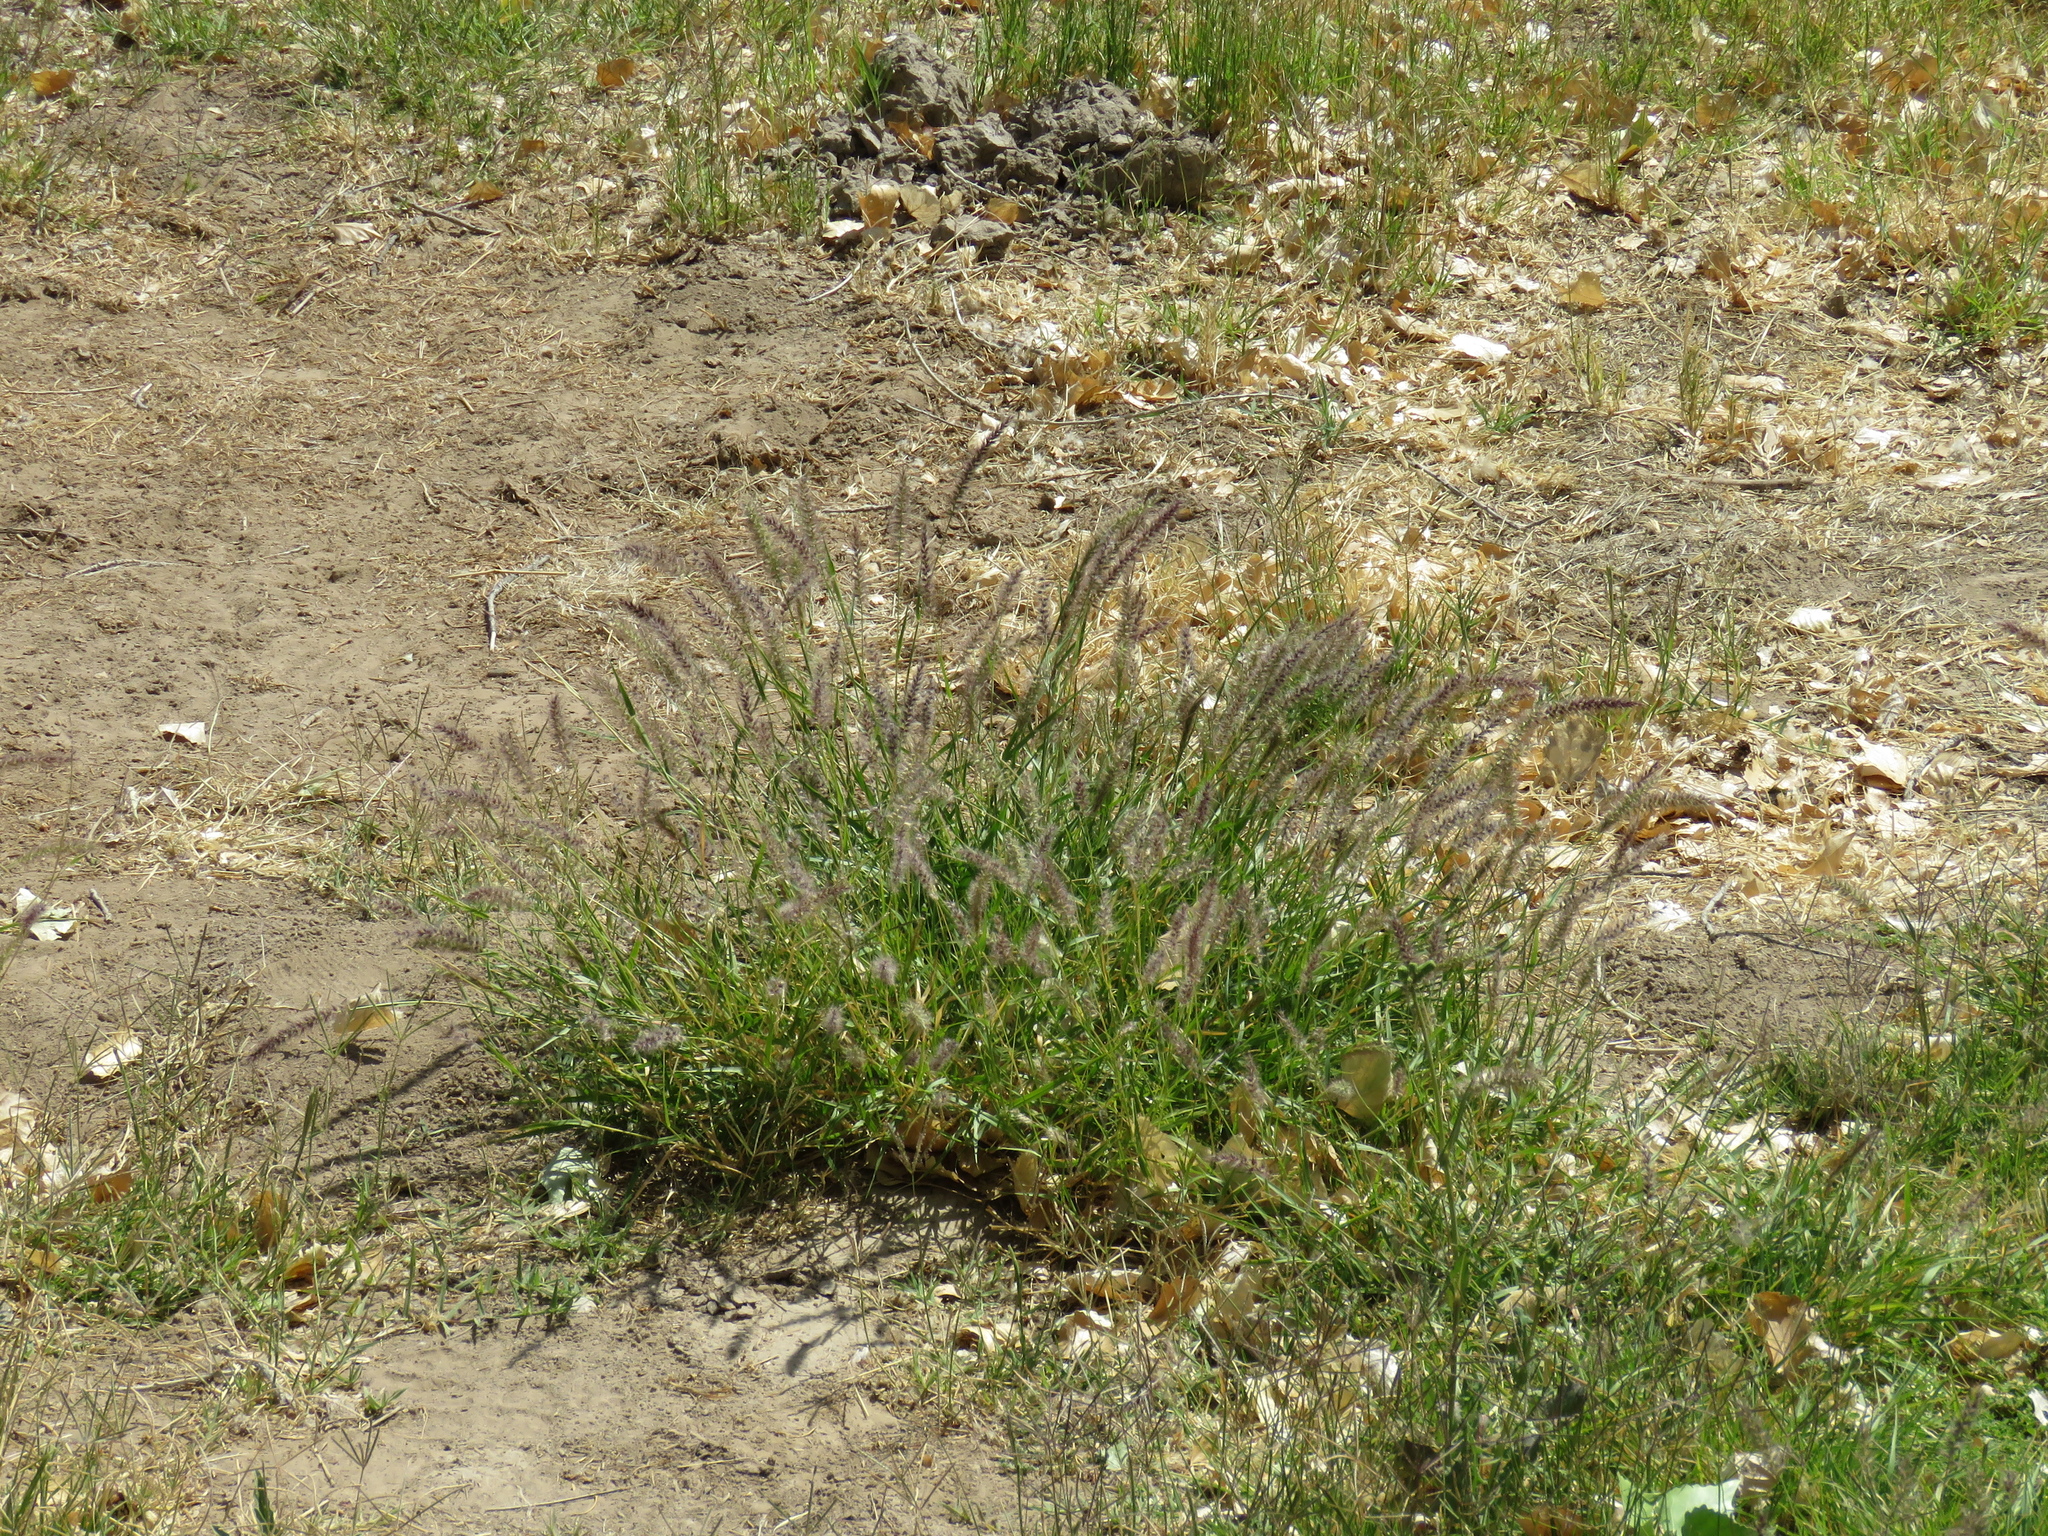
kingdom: Plantae
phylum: Tracheophyta
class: Liliopsida
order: Poales
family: Poaceae
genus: Cenchrus
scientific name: Cenchrus ciliaris
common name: Buffelgrass
